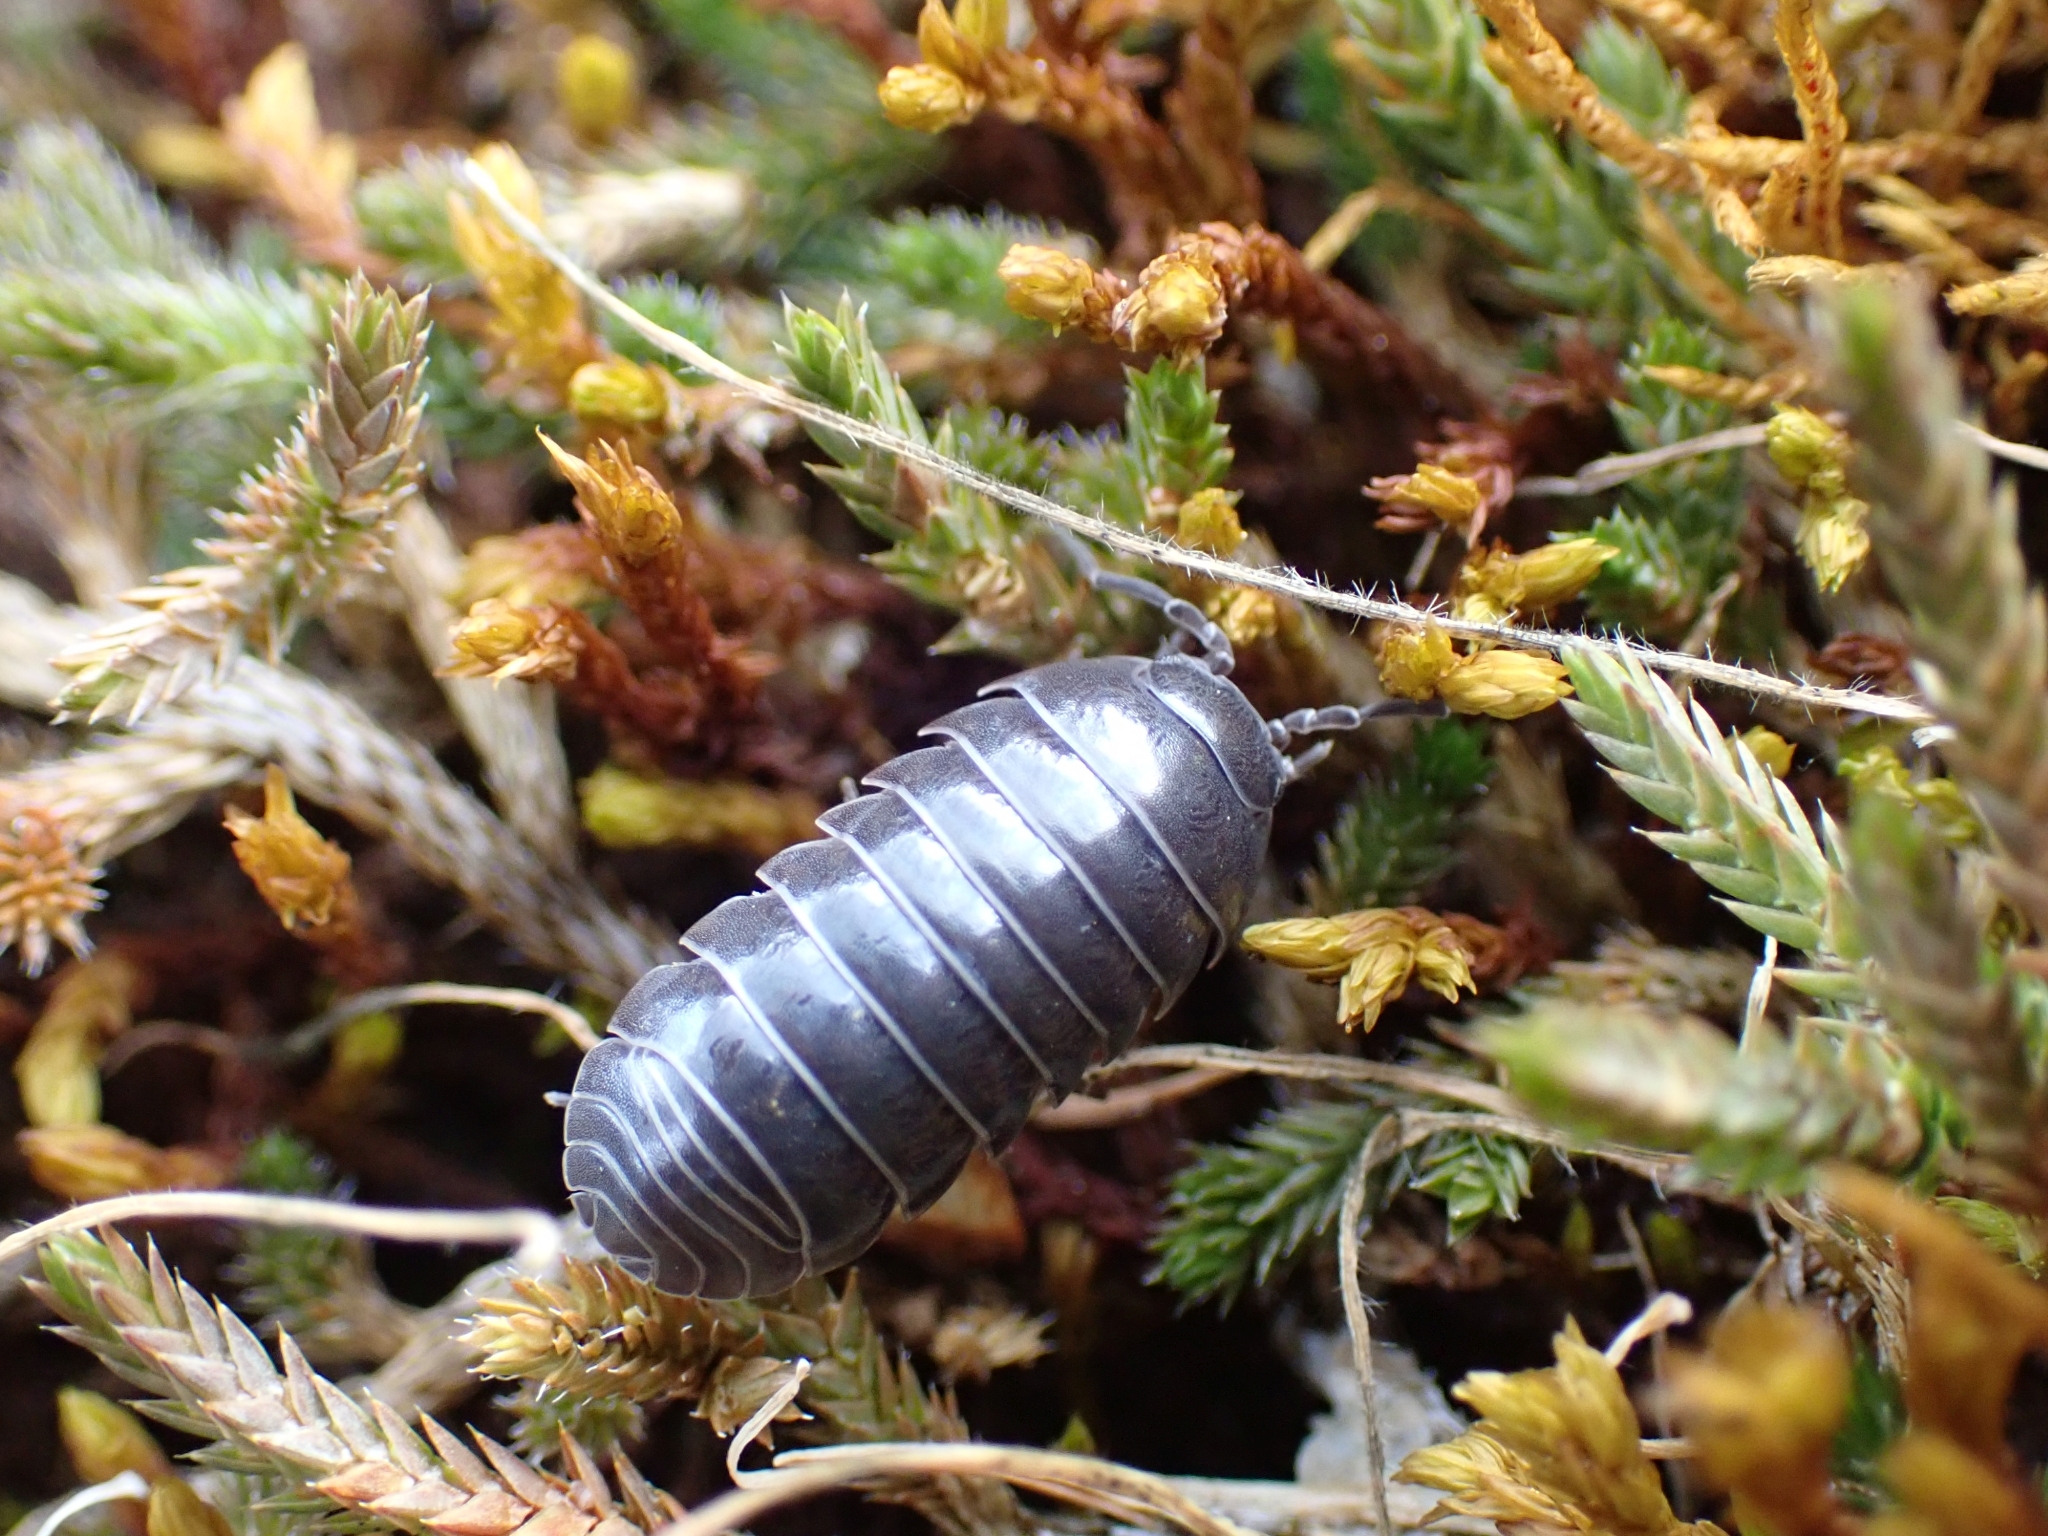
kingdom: Animalia
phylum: Arthropoda
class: Malacostraca
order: Isopoda
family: Armadillidiidae
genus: Armadillidium
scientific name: Armadillidium vulgare
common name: Common pill woodlouse
